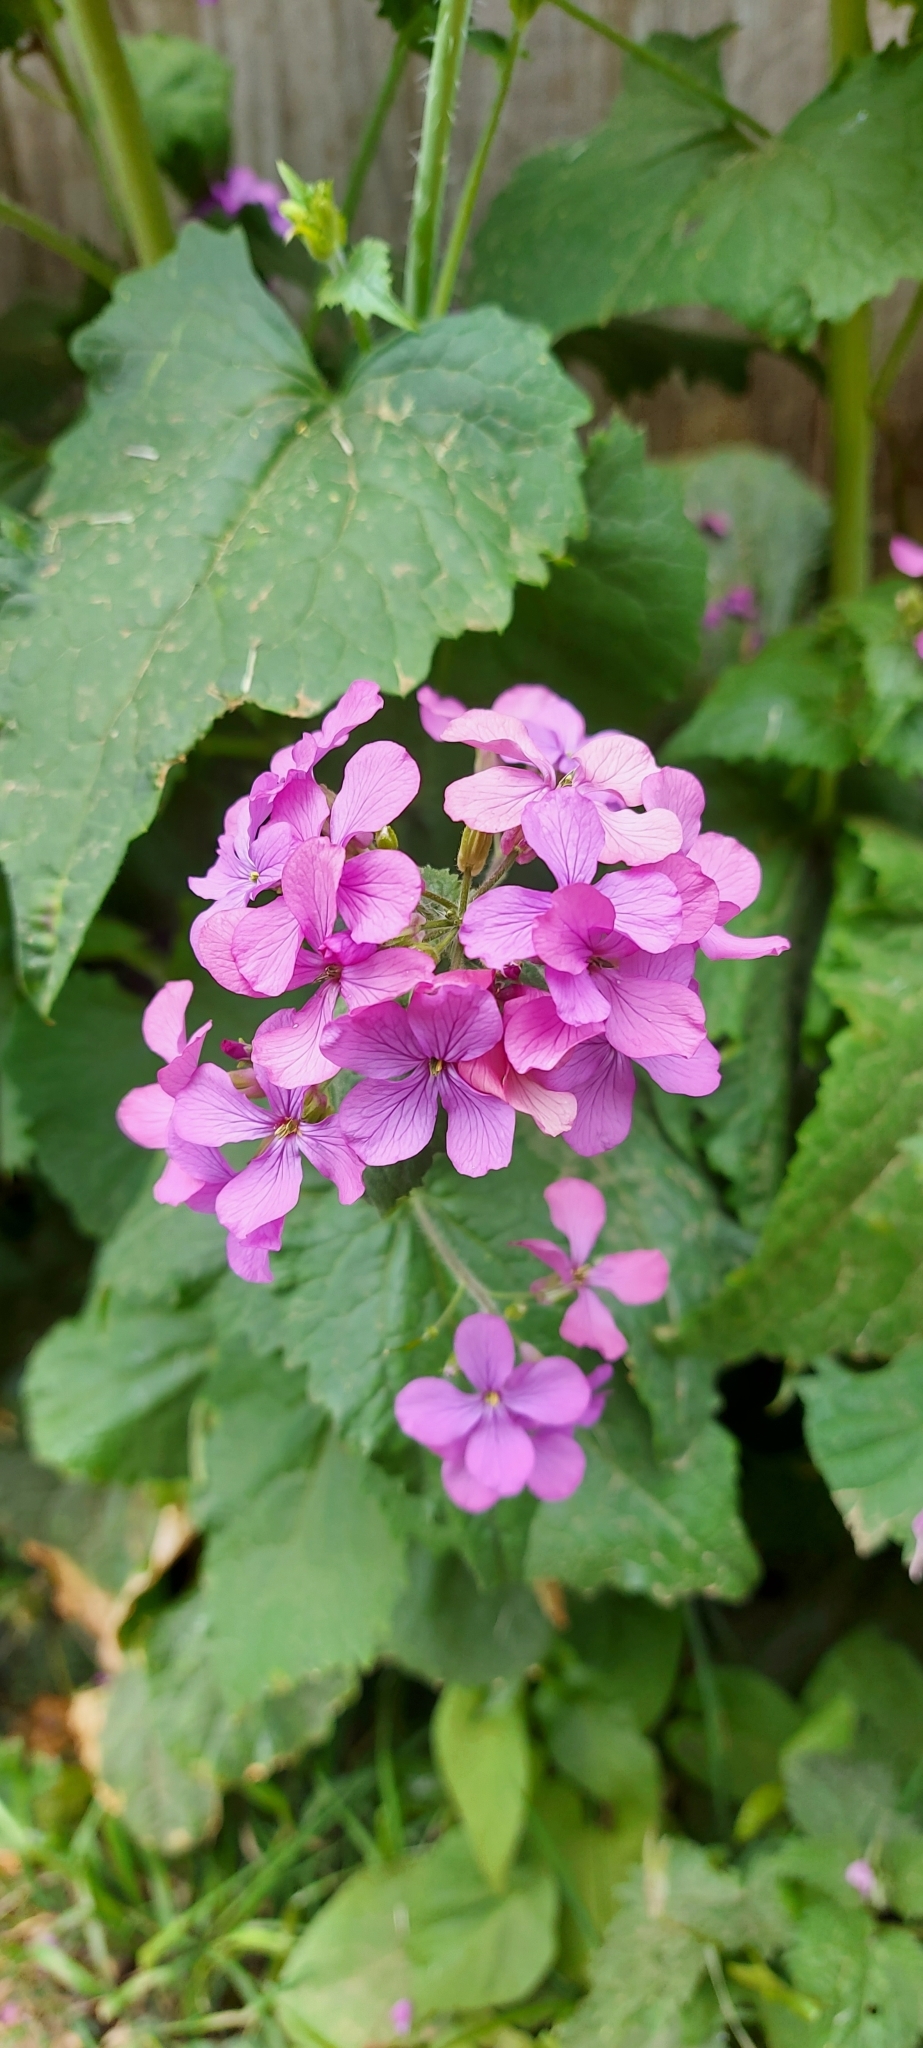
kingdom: Plantae
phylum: Tracheophyta
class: Magnoliopsida
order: Brassicales
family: Brassicaceae
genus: Lunaria
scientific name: Lunaria annua
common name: Honesty
